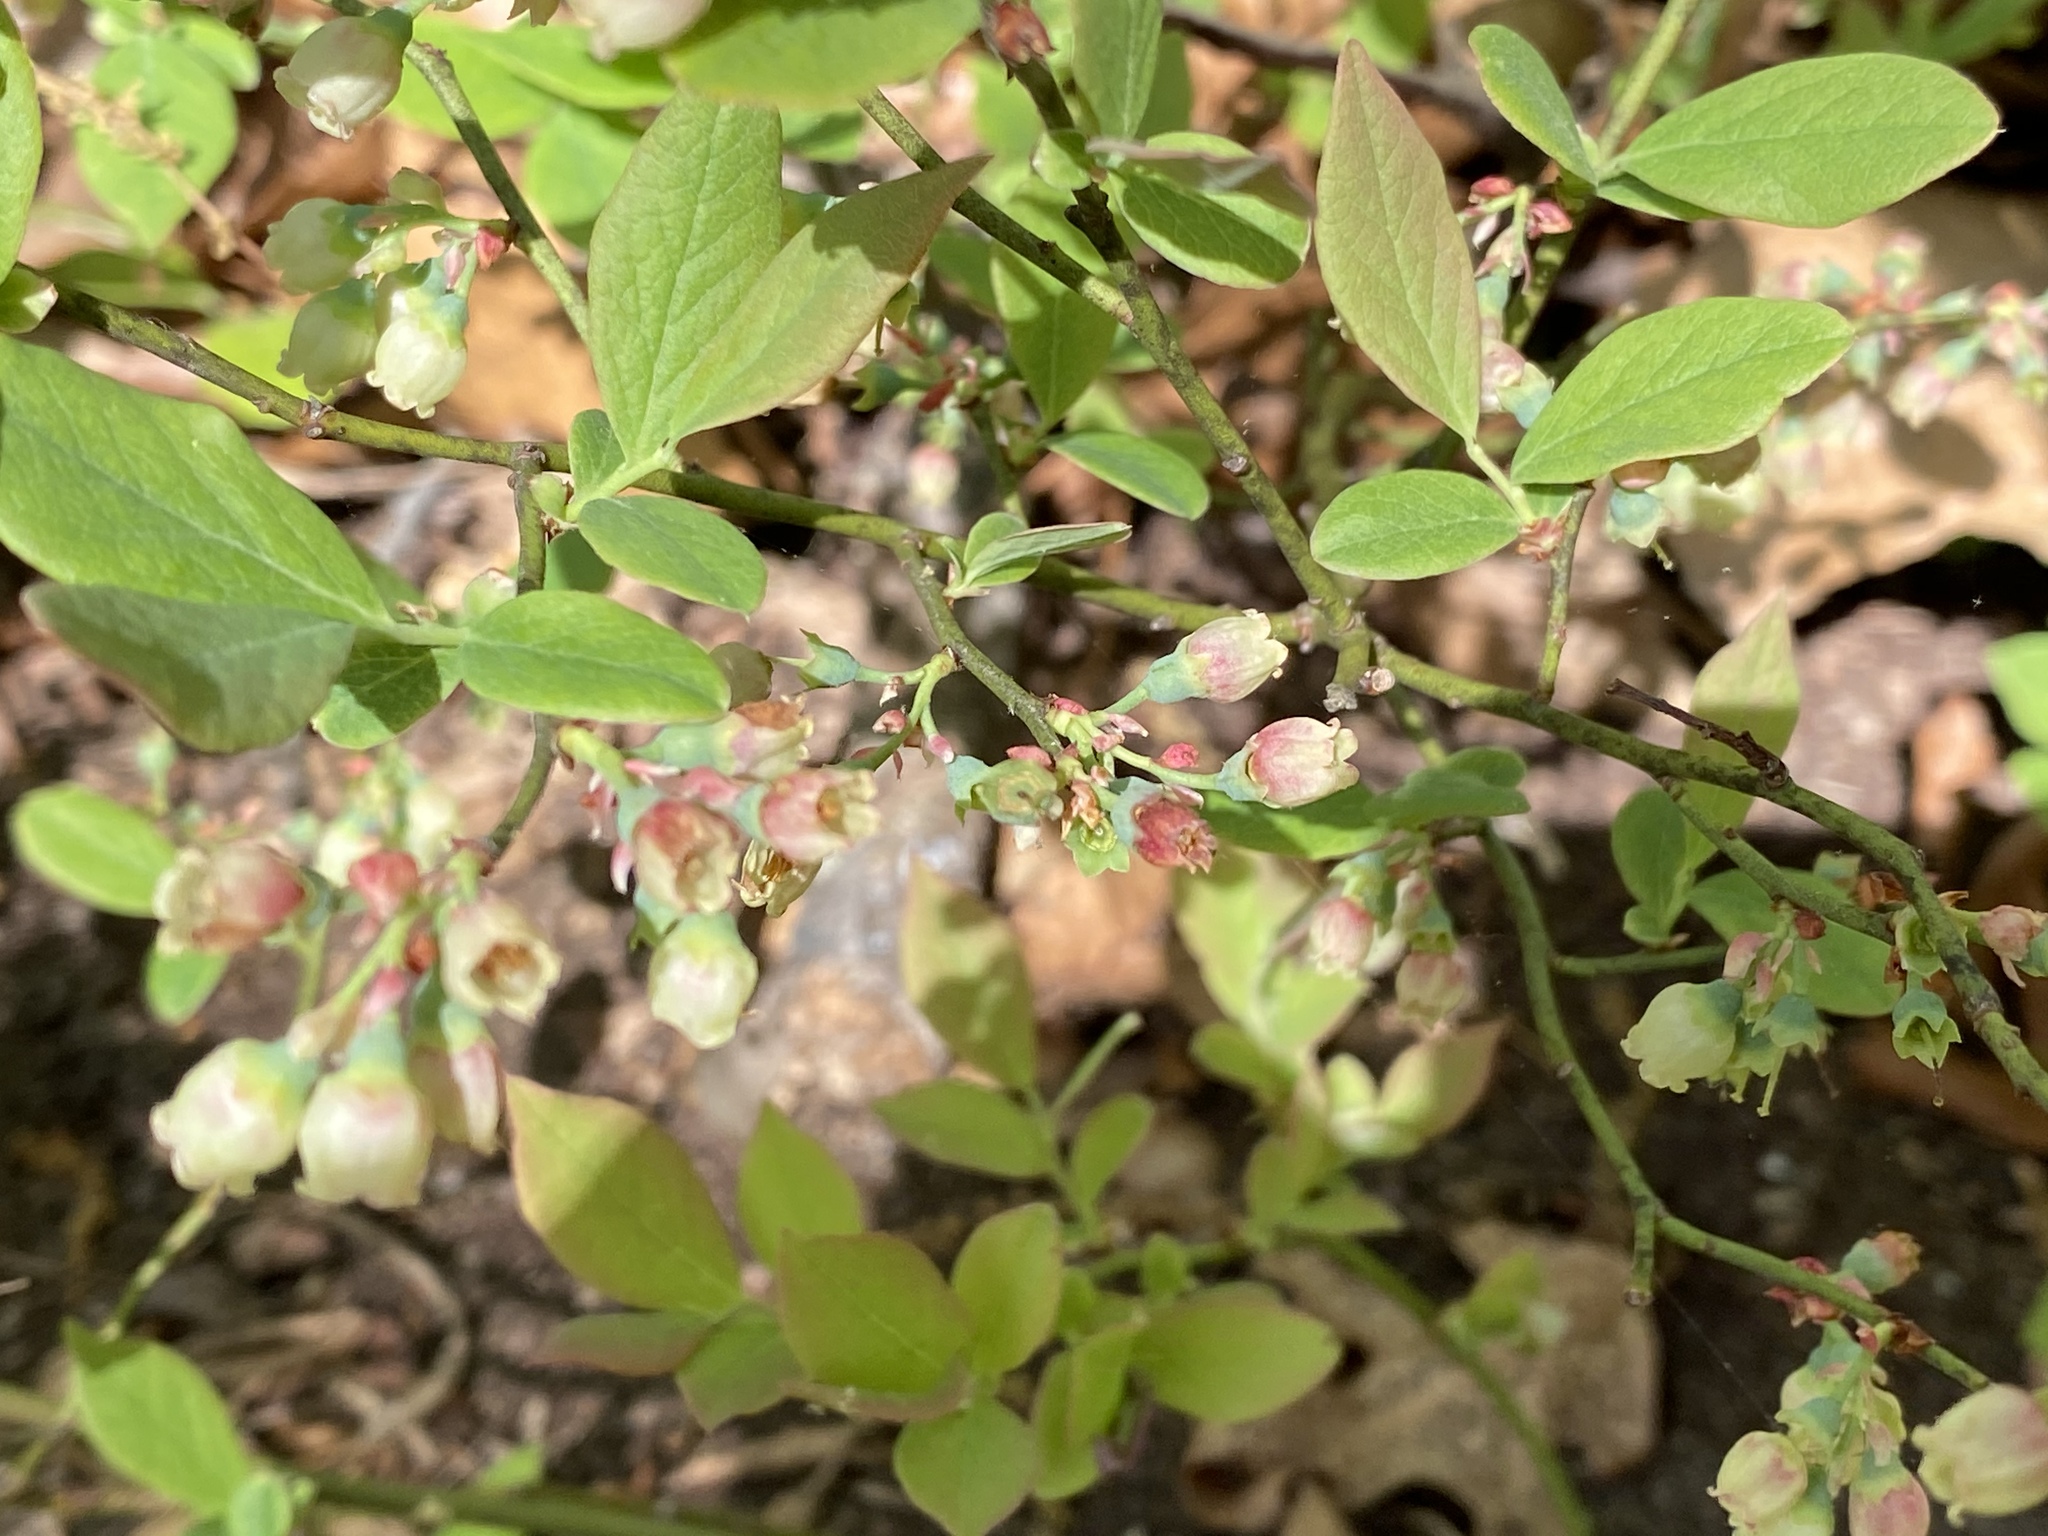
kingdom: Plantae
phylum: Tracheophyta
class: Magnoliopsida
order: Ericales
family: Ericaceae
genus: Gaylussacia
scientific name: Gaylussacia baccata
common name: Black huckleberry
